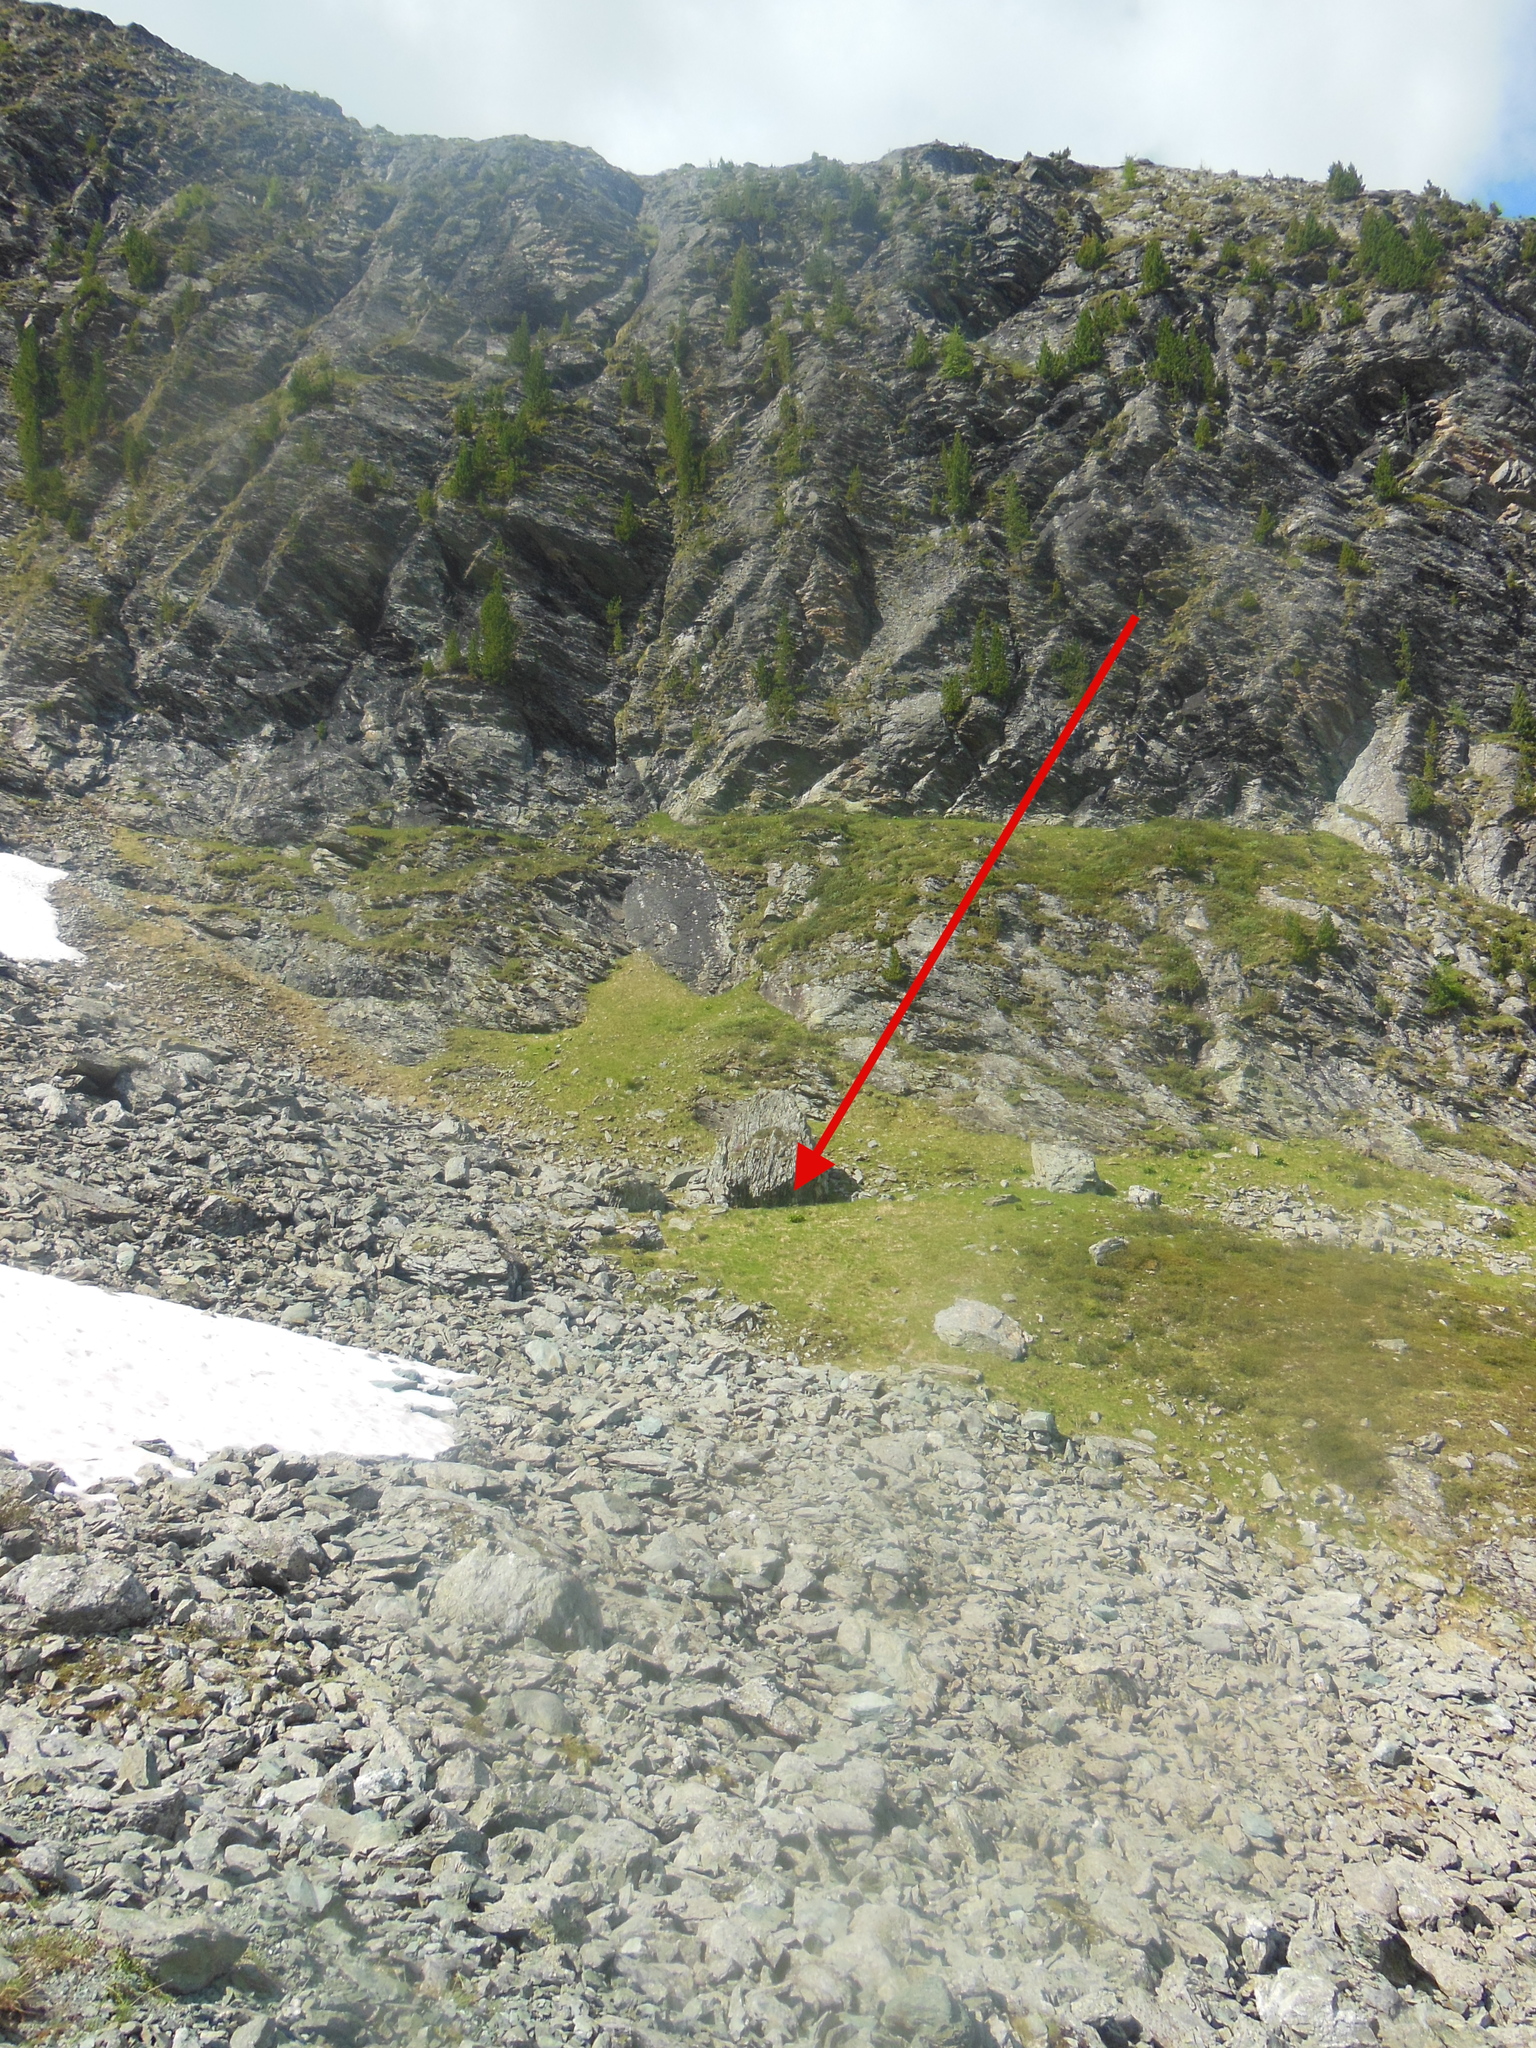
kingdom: Plantae
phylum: Tracheophyta
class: Magnoliopsida
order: Saxifragales
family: Saxifragaceae
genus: Saxifraga
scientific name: Saxifraga cernua
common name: Drooping saxifrage
